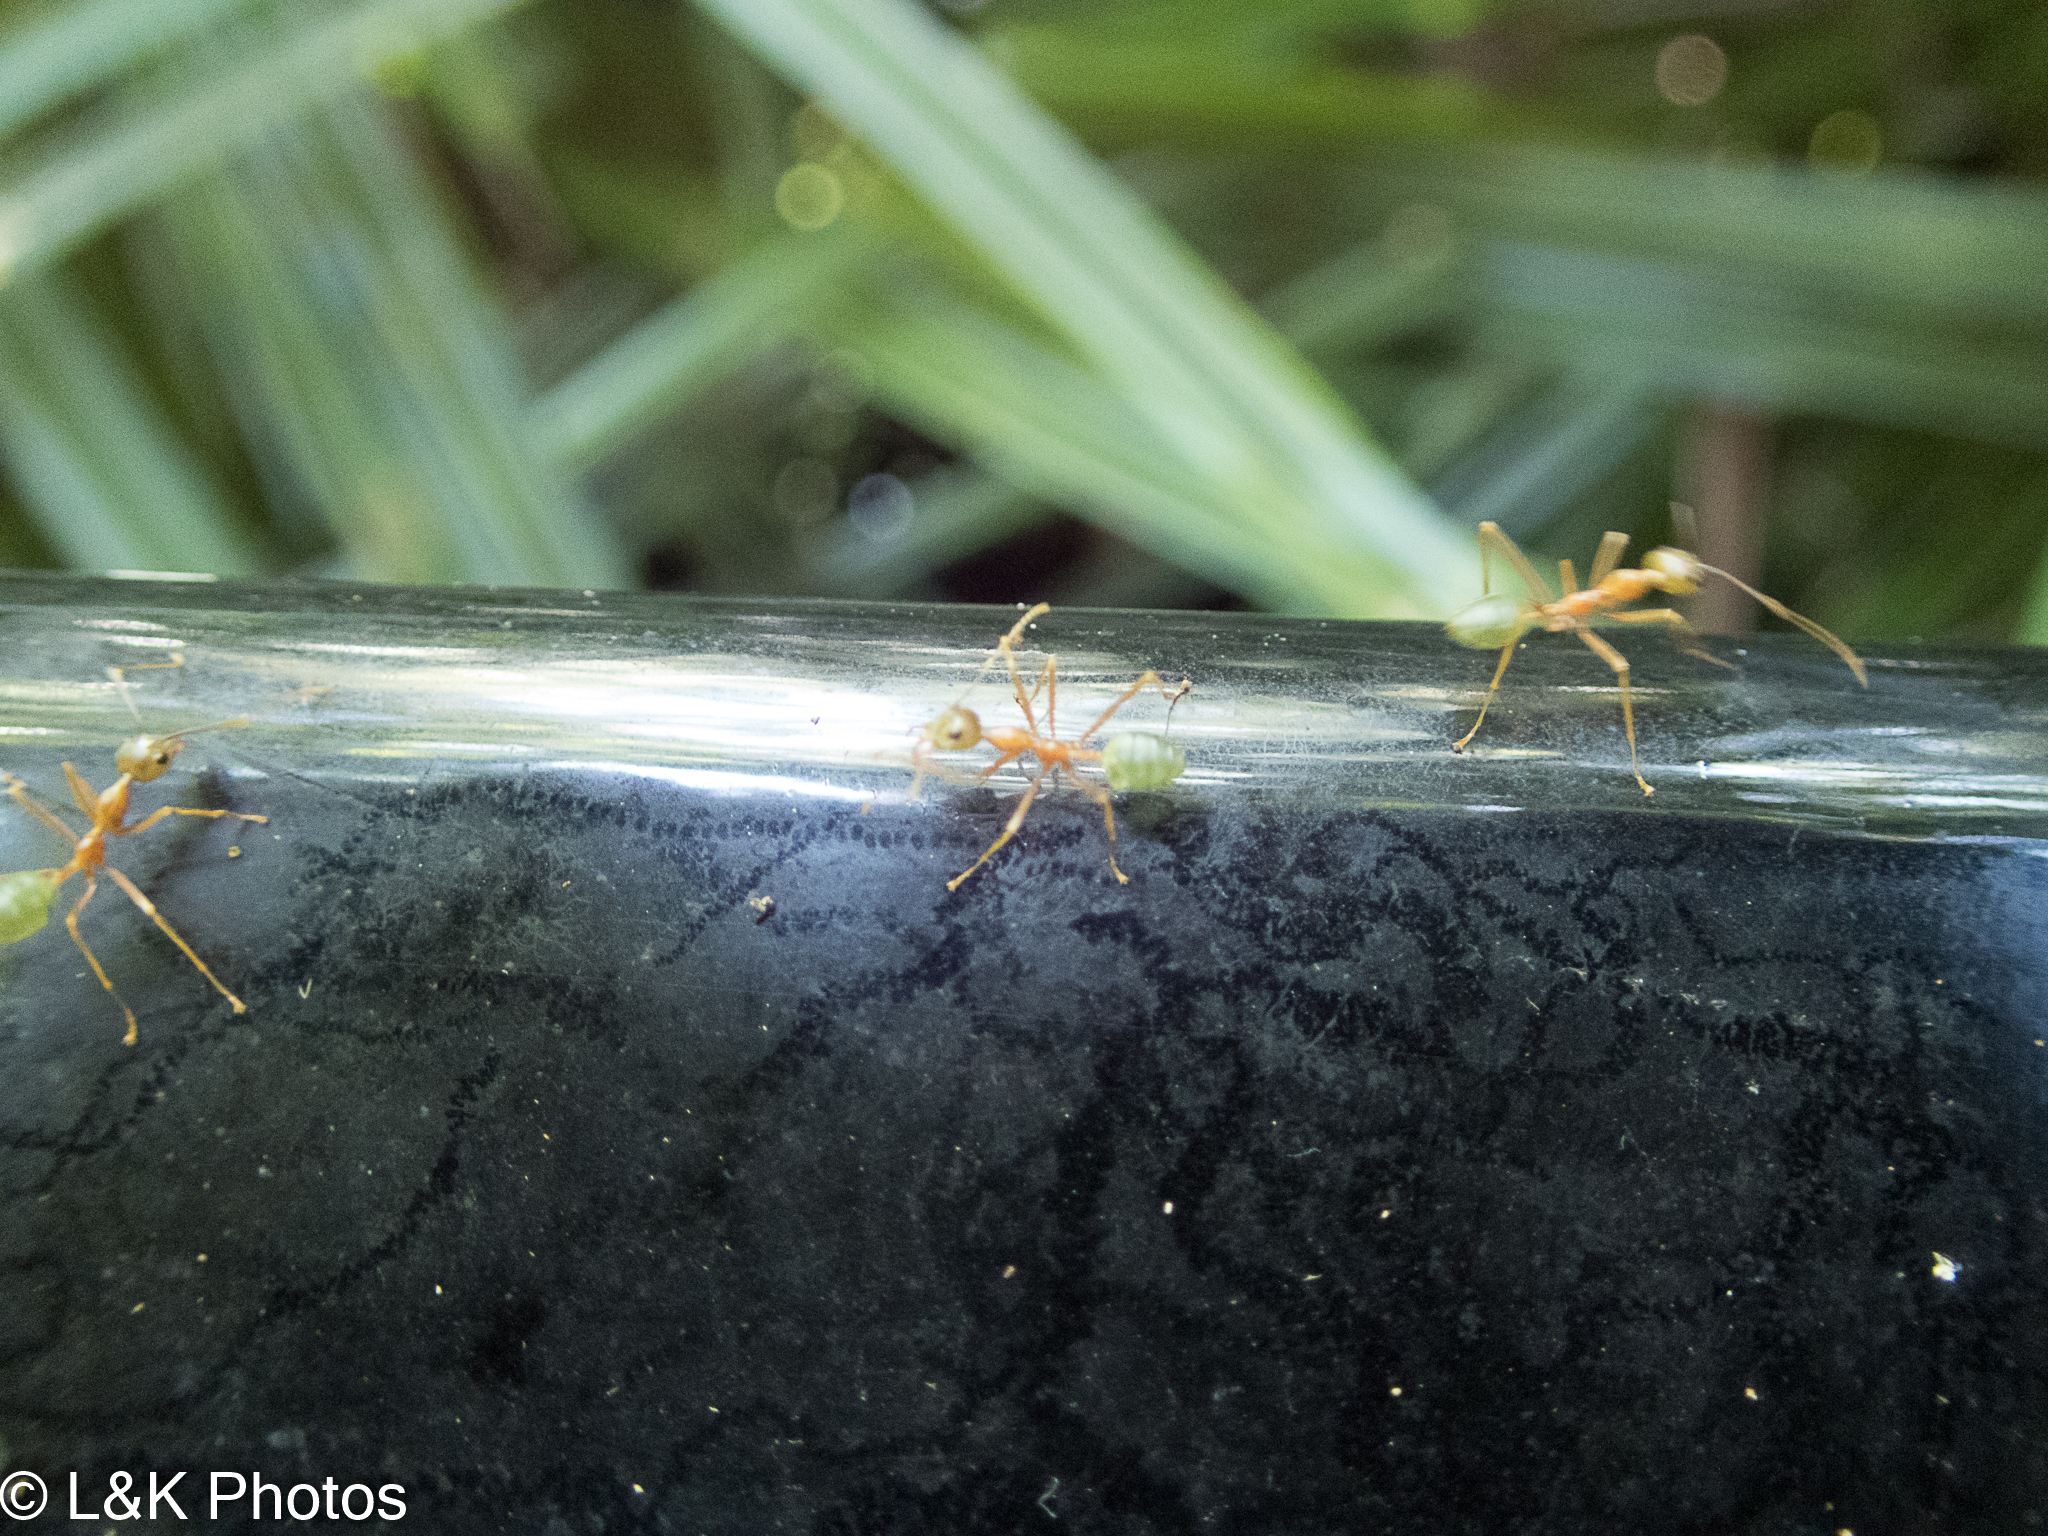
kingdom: Animalia
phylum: Arthropoda
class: Insecta
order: Hymenoptera
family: Formicidae
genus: Oecophylla
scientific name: Oecophylla smaragdina
